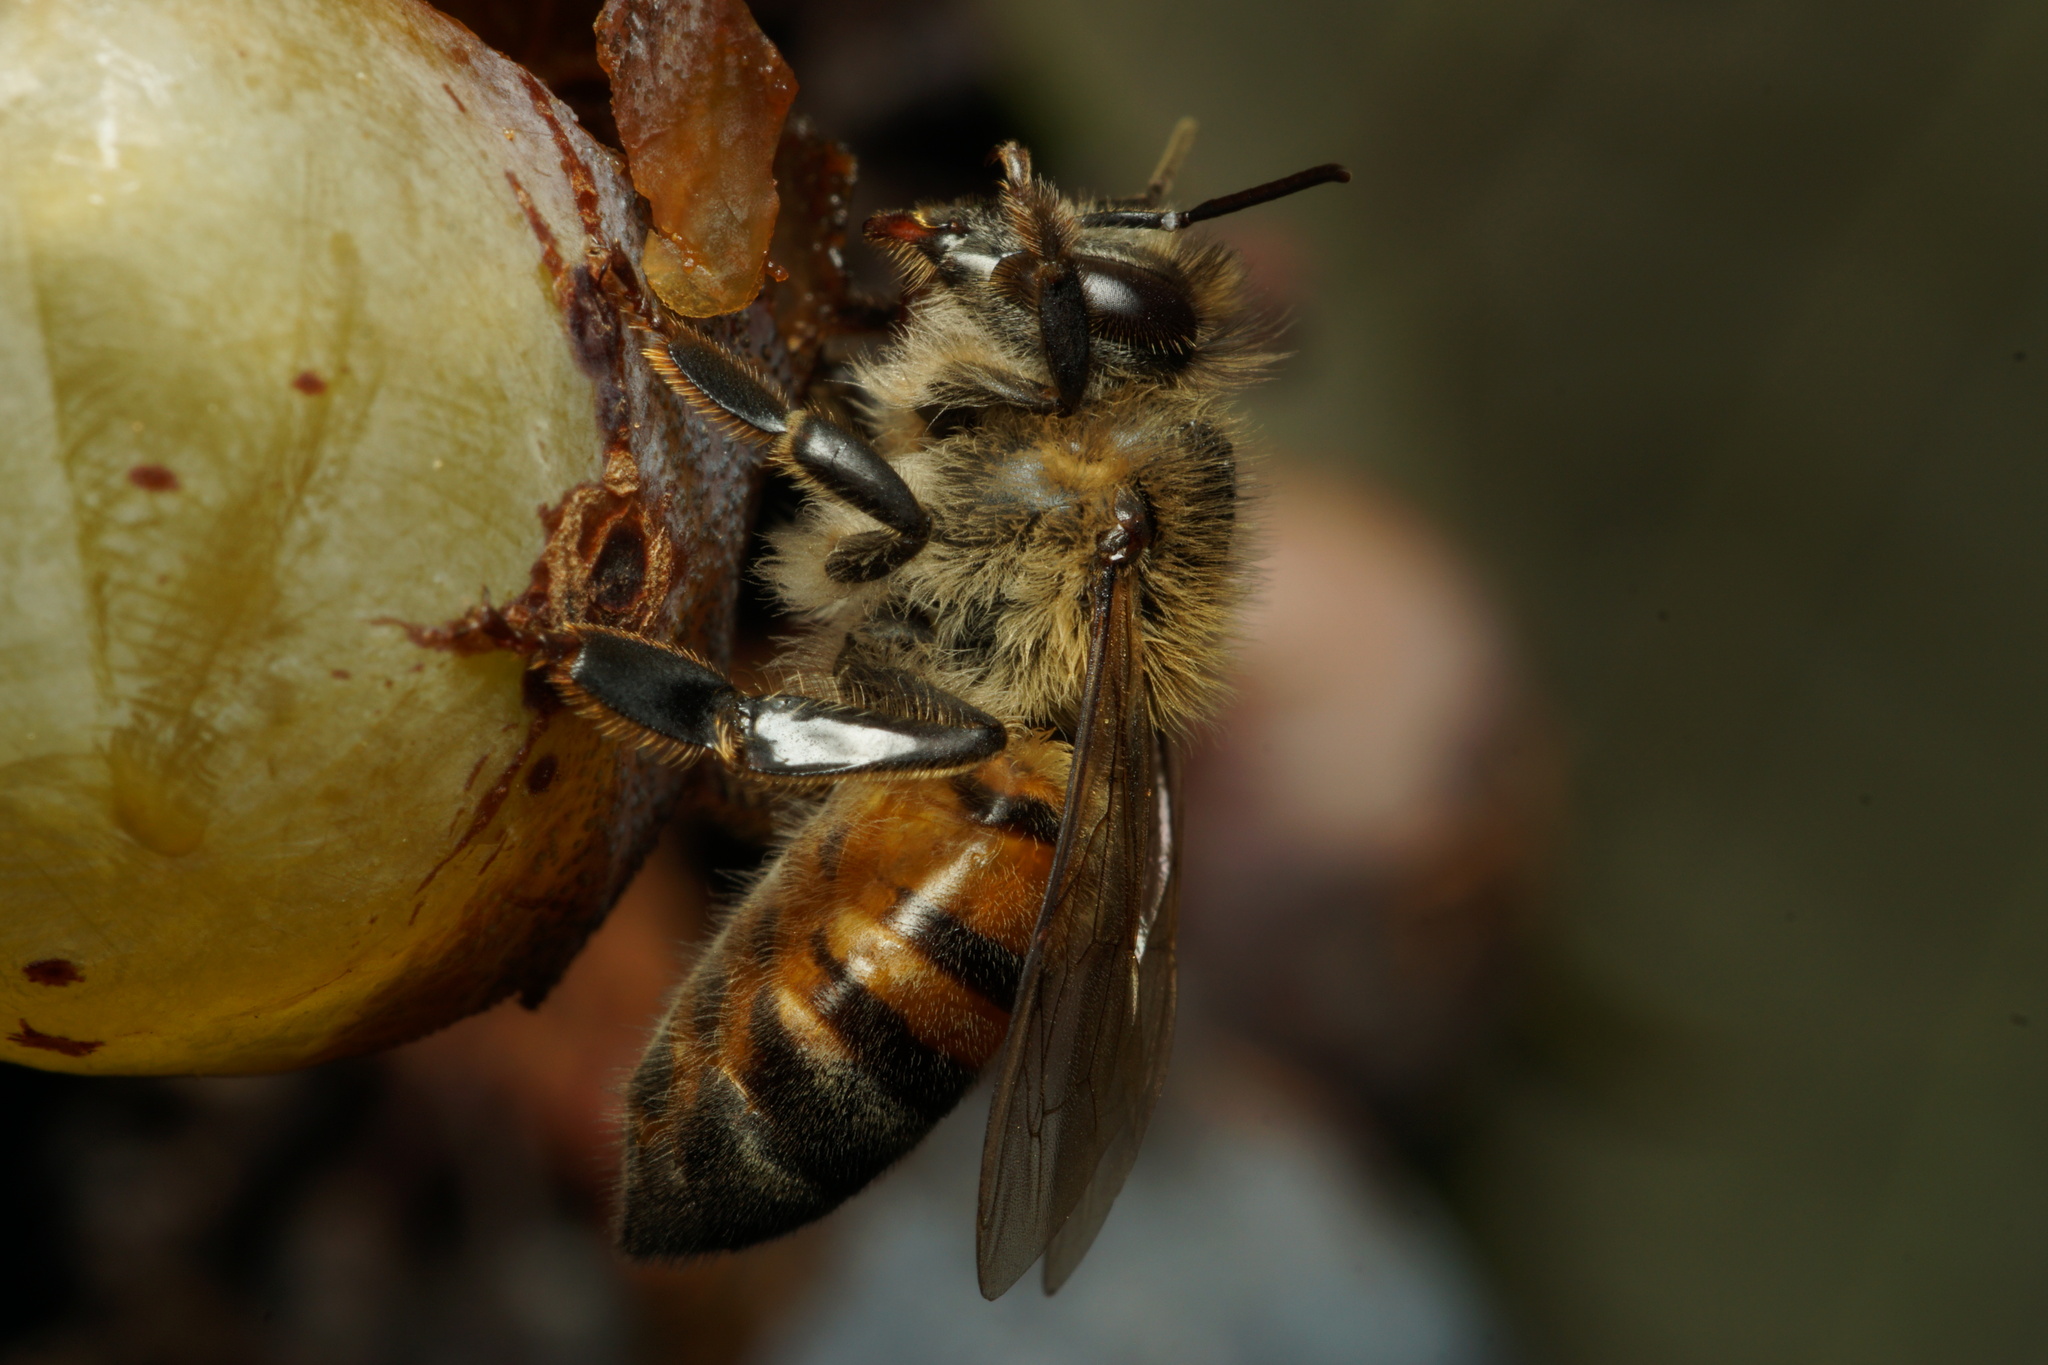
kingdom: Animalia
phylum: Arthropoda
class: Insecta
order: Hymenoptera
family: Apidae
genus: Apis
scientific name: Apis mellifera
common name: Honey bee
